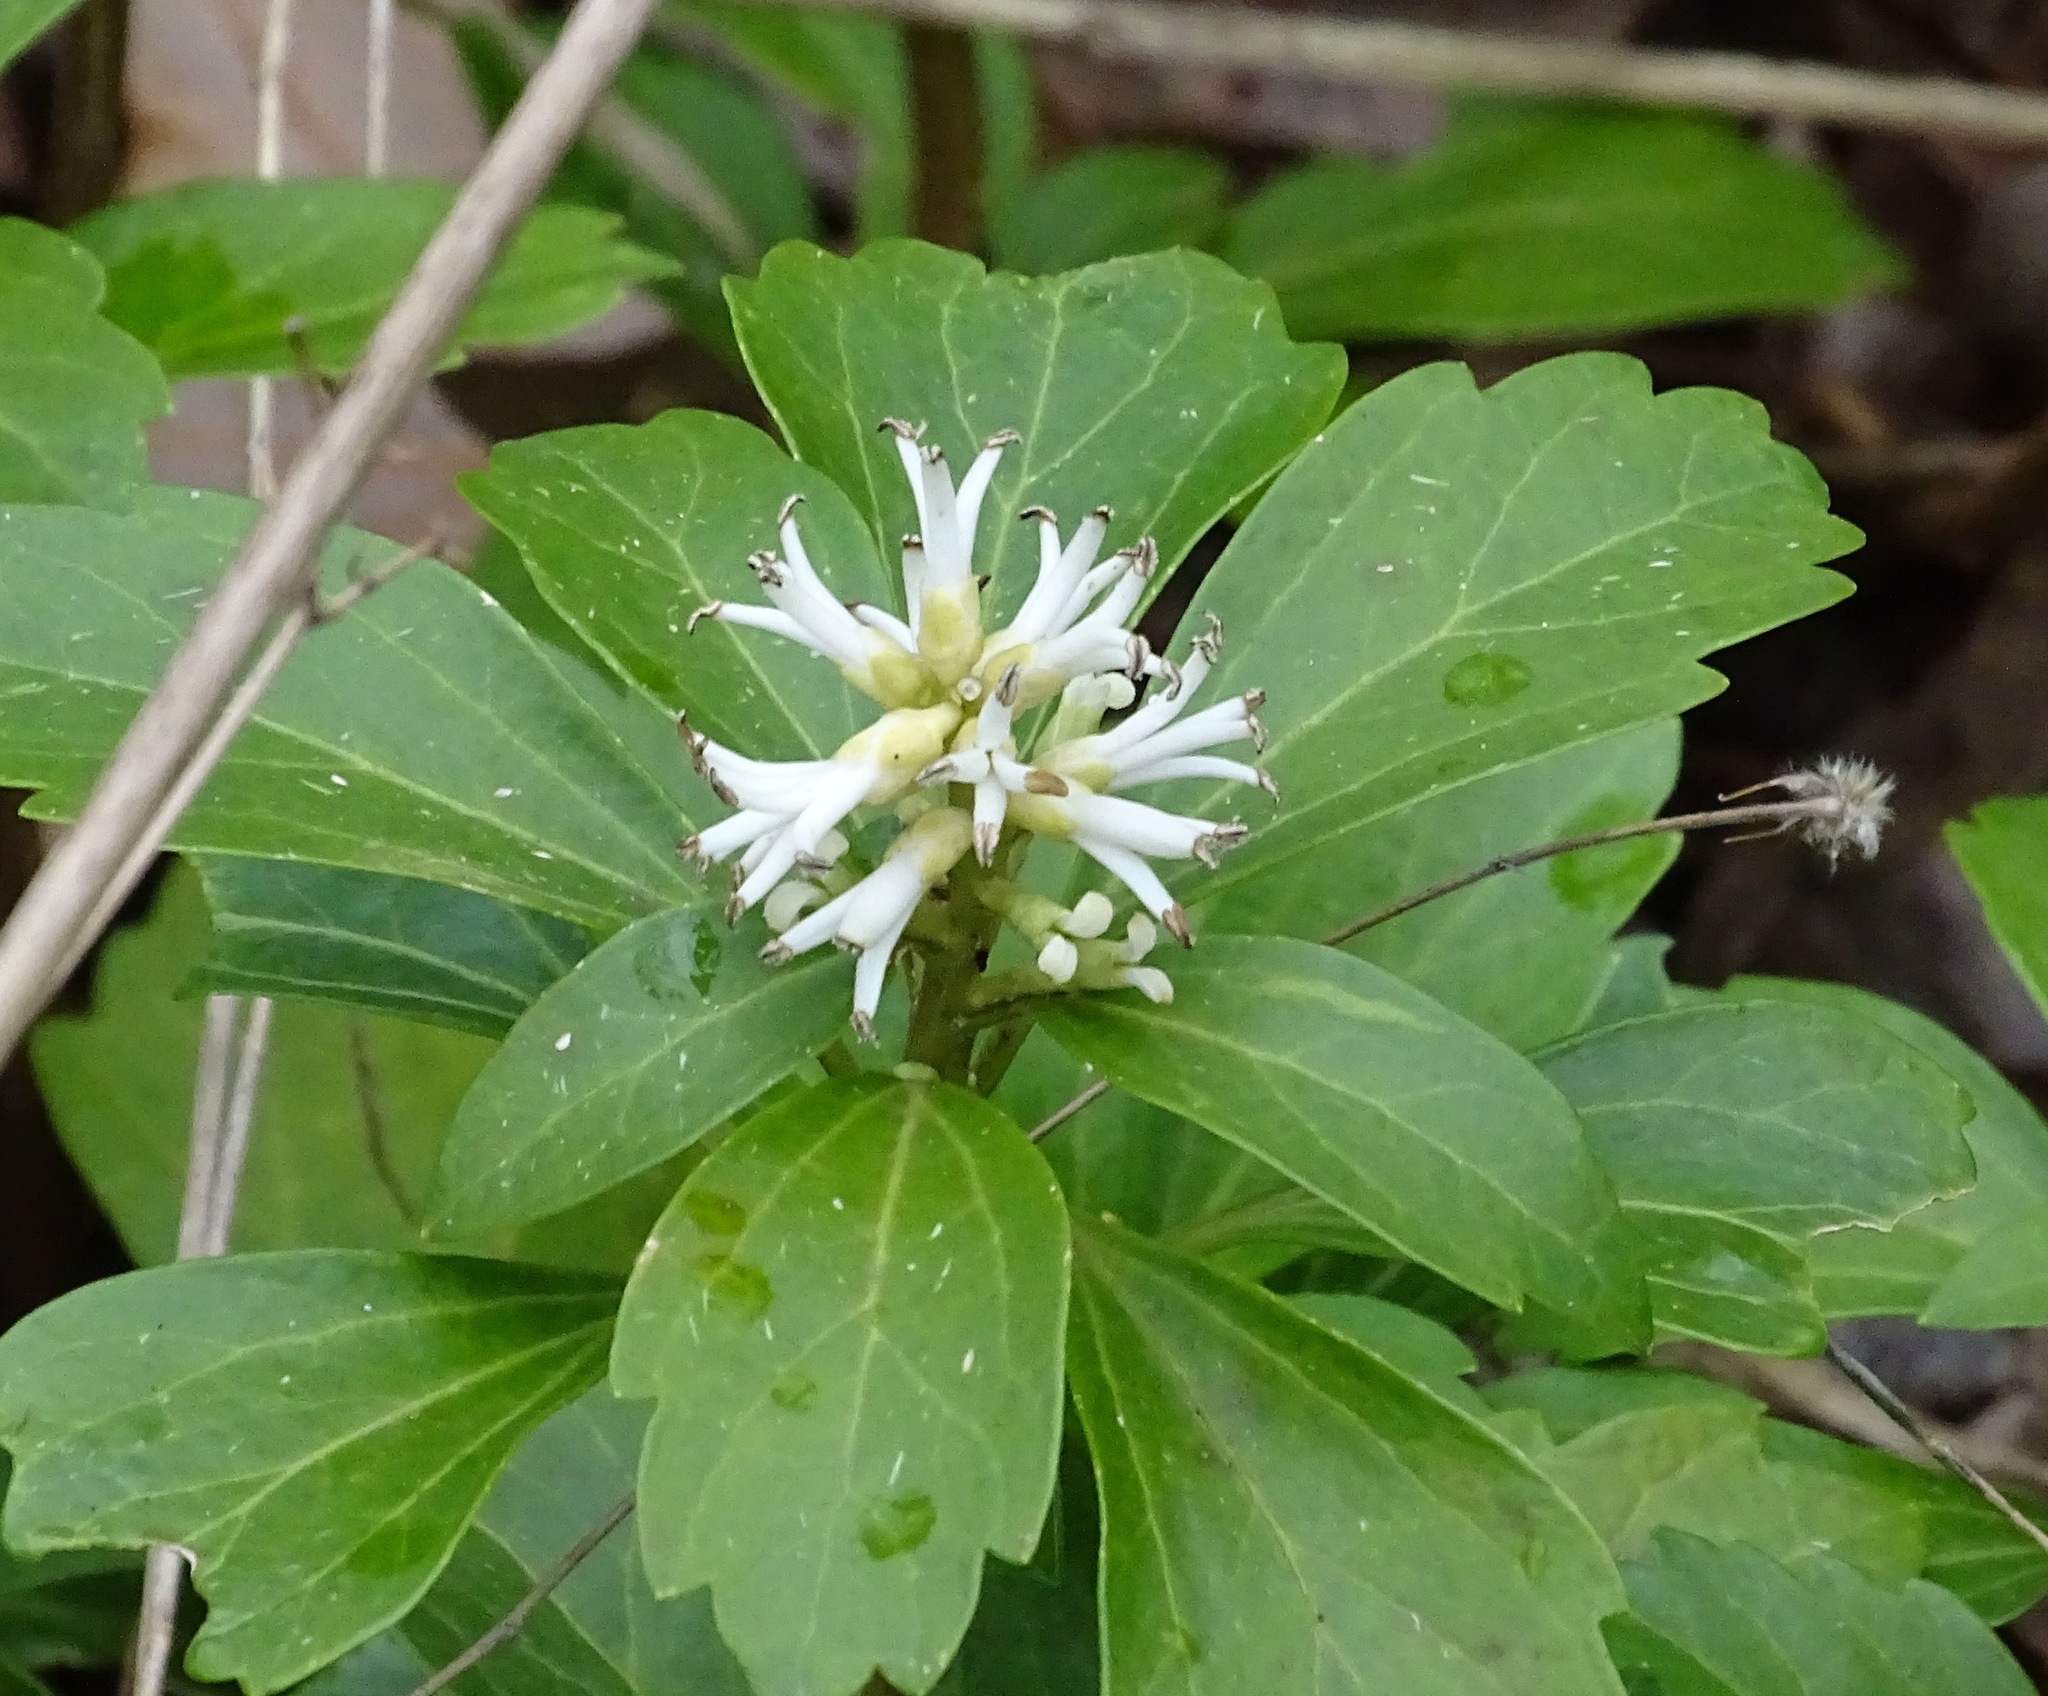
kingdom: Plantae
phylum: Tracheophyta
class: Magnoliopsida
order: Buxales
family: Buxaceae
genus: Pachysandra
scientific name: Pachysandra terminalis
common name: Japanese pachysandra
